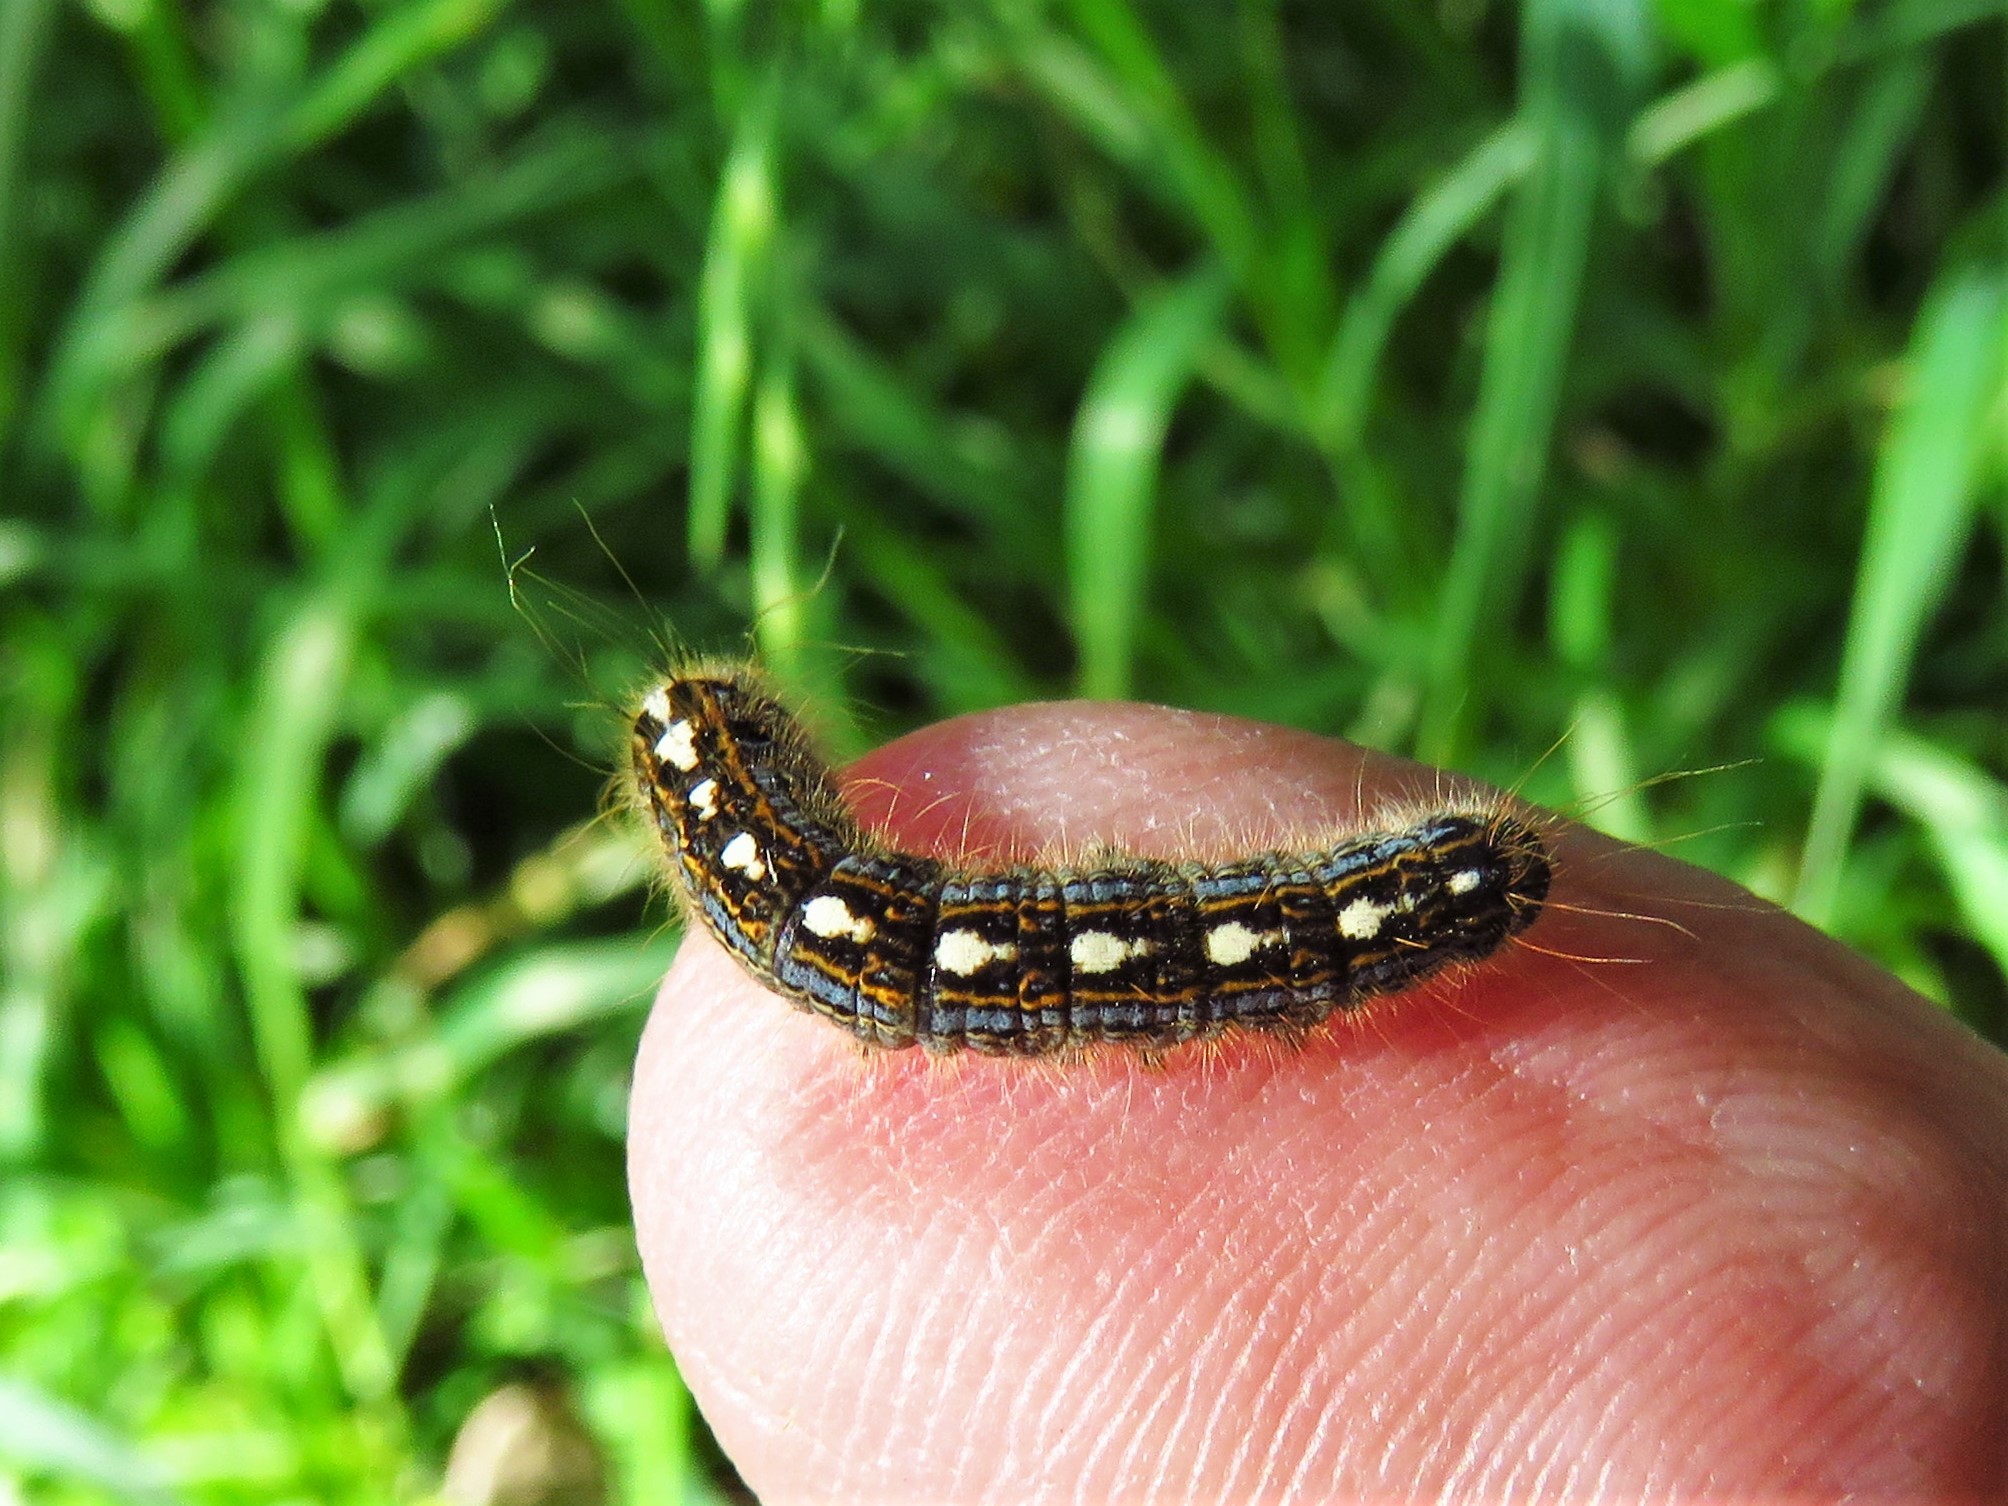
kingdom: Animalia
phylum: Arthropoda
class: Insecta
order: Lepidoptera
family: Lasiocampidae
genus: Malacosoma
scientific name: Malacosoma disstria
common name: Forest tent caterpillar
